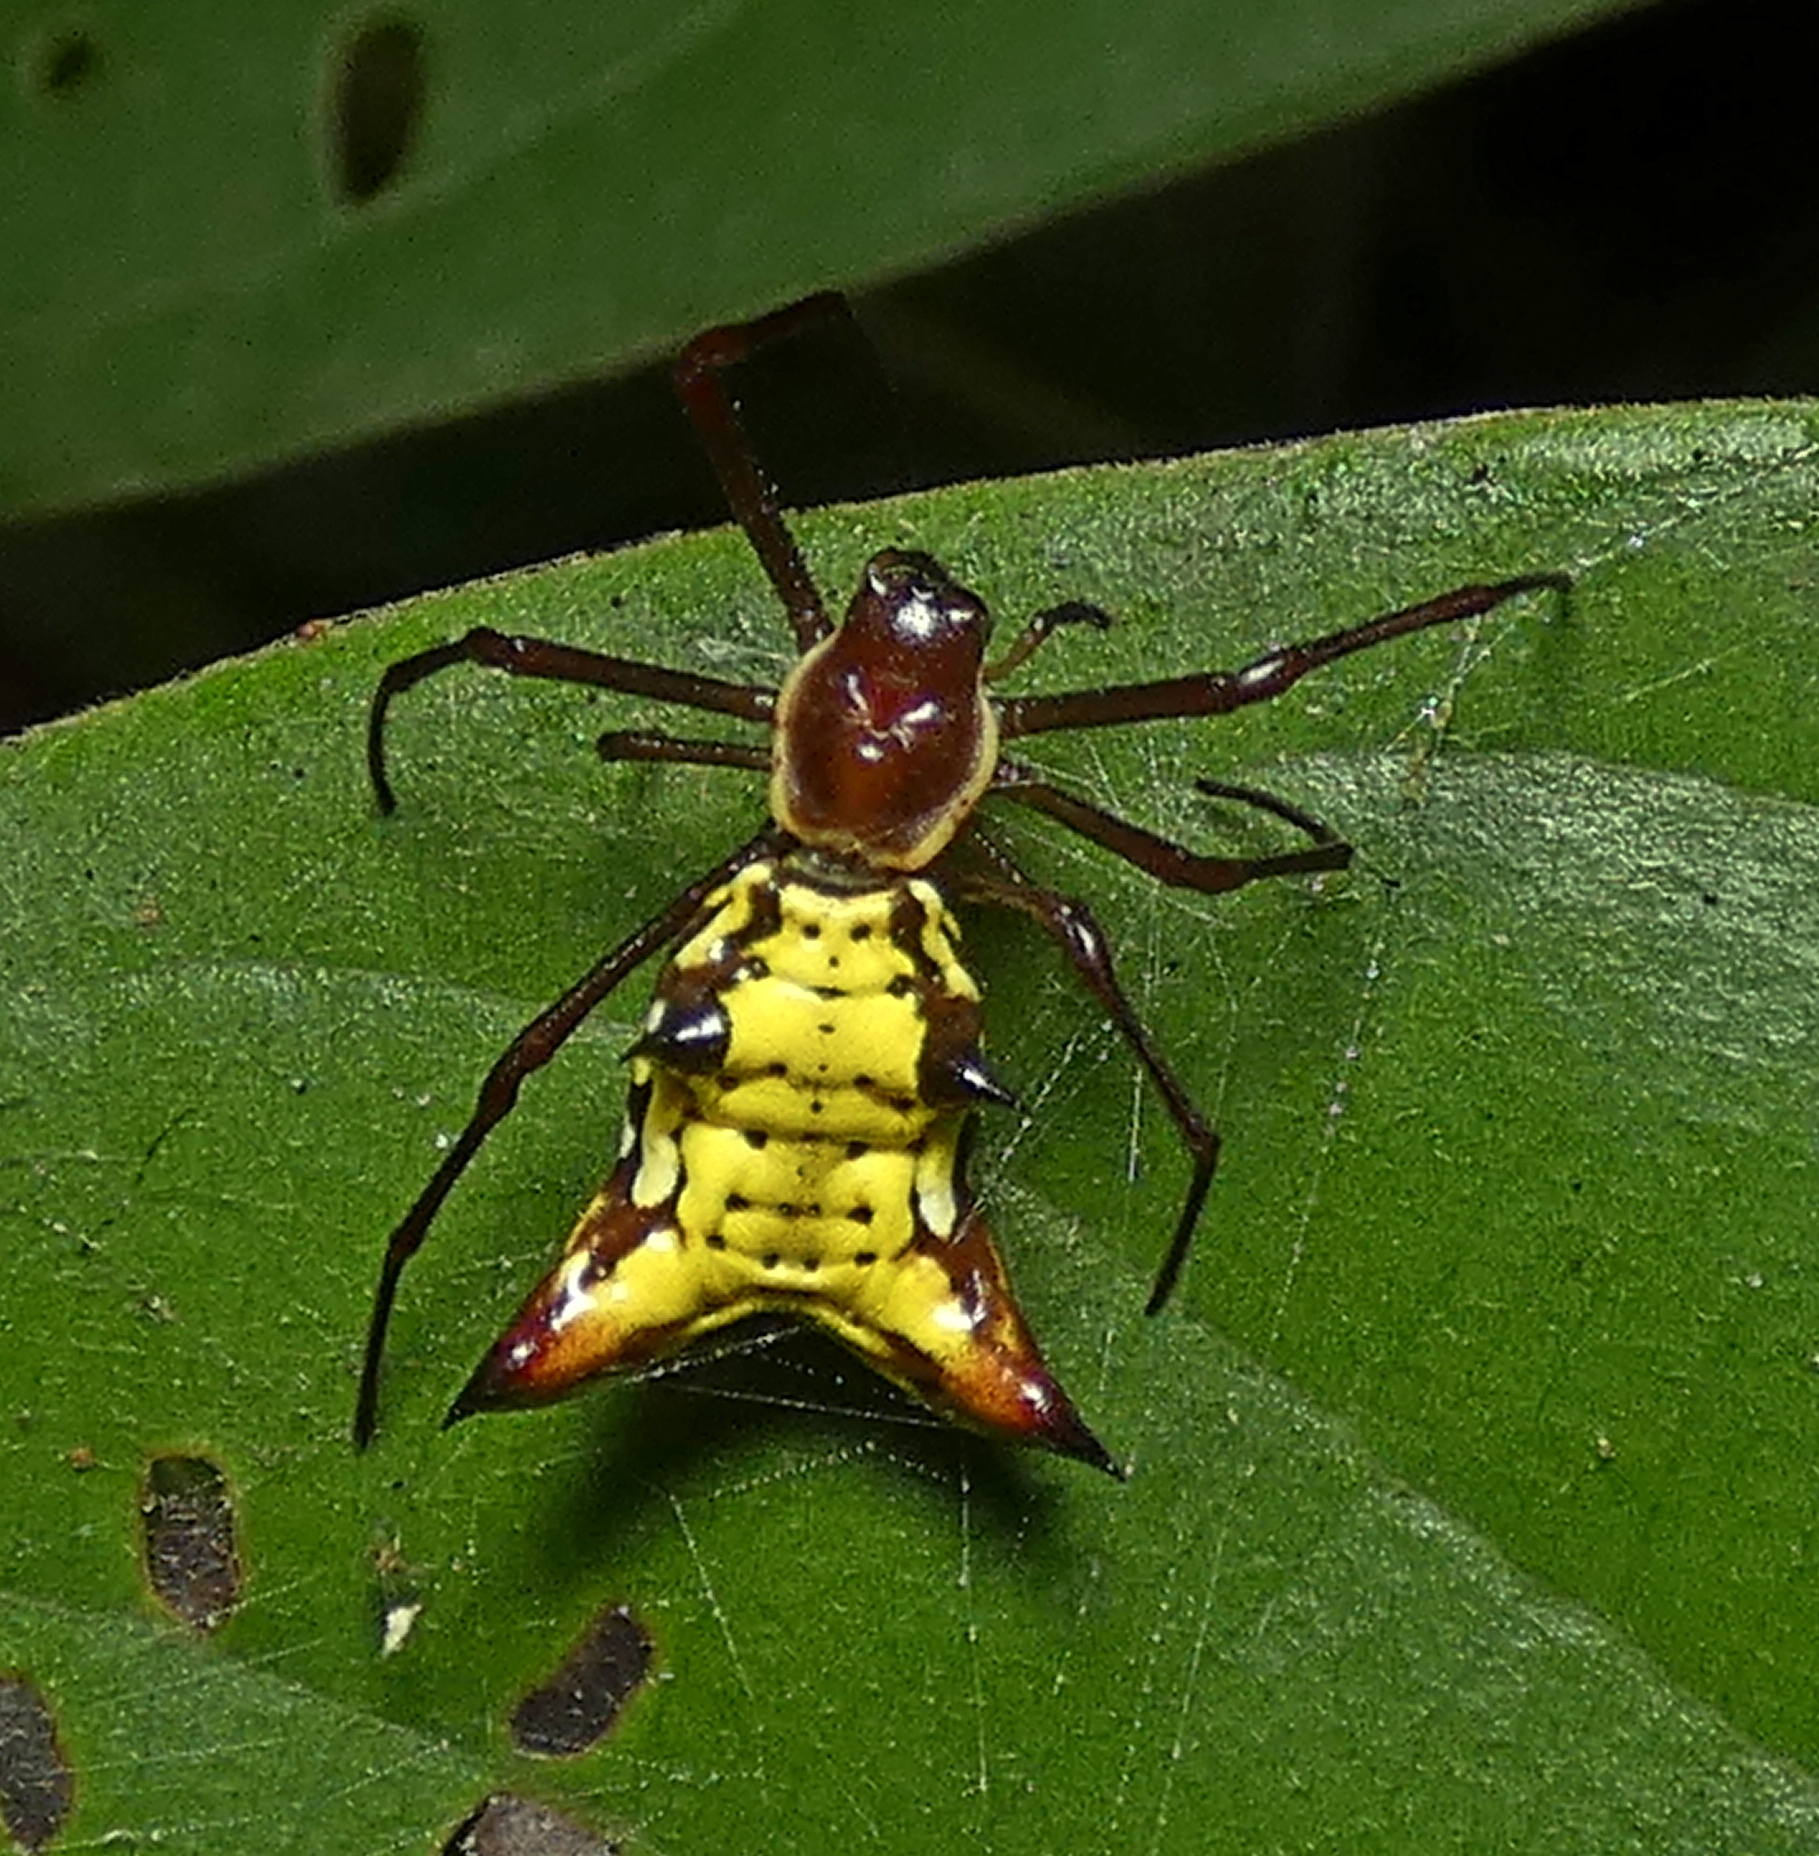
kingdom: Animalia
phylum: Arthropoda
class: Arachnida
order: Araneae
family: Araneidae
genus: Micrathena
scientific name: Micrathena fissispina
